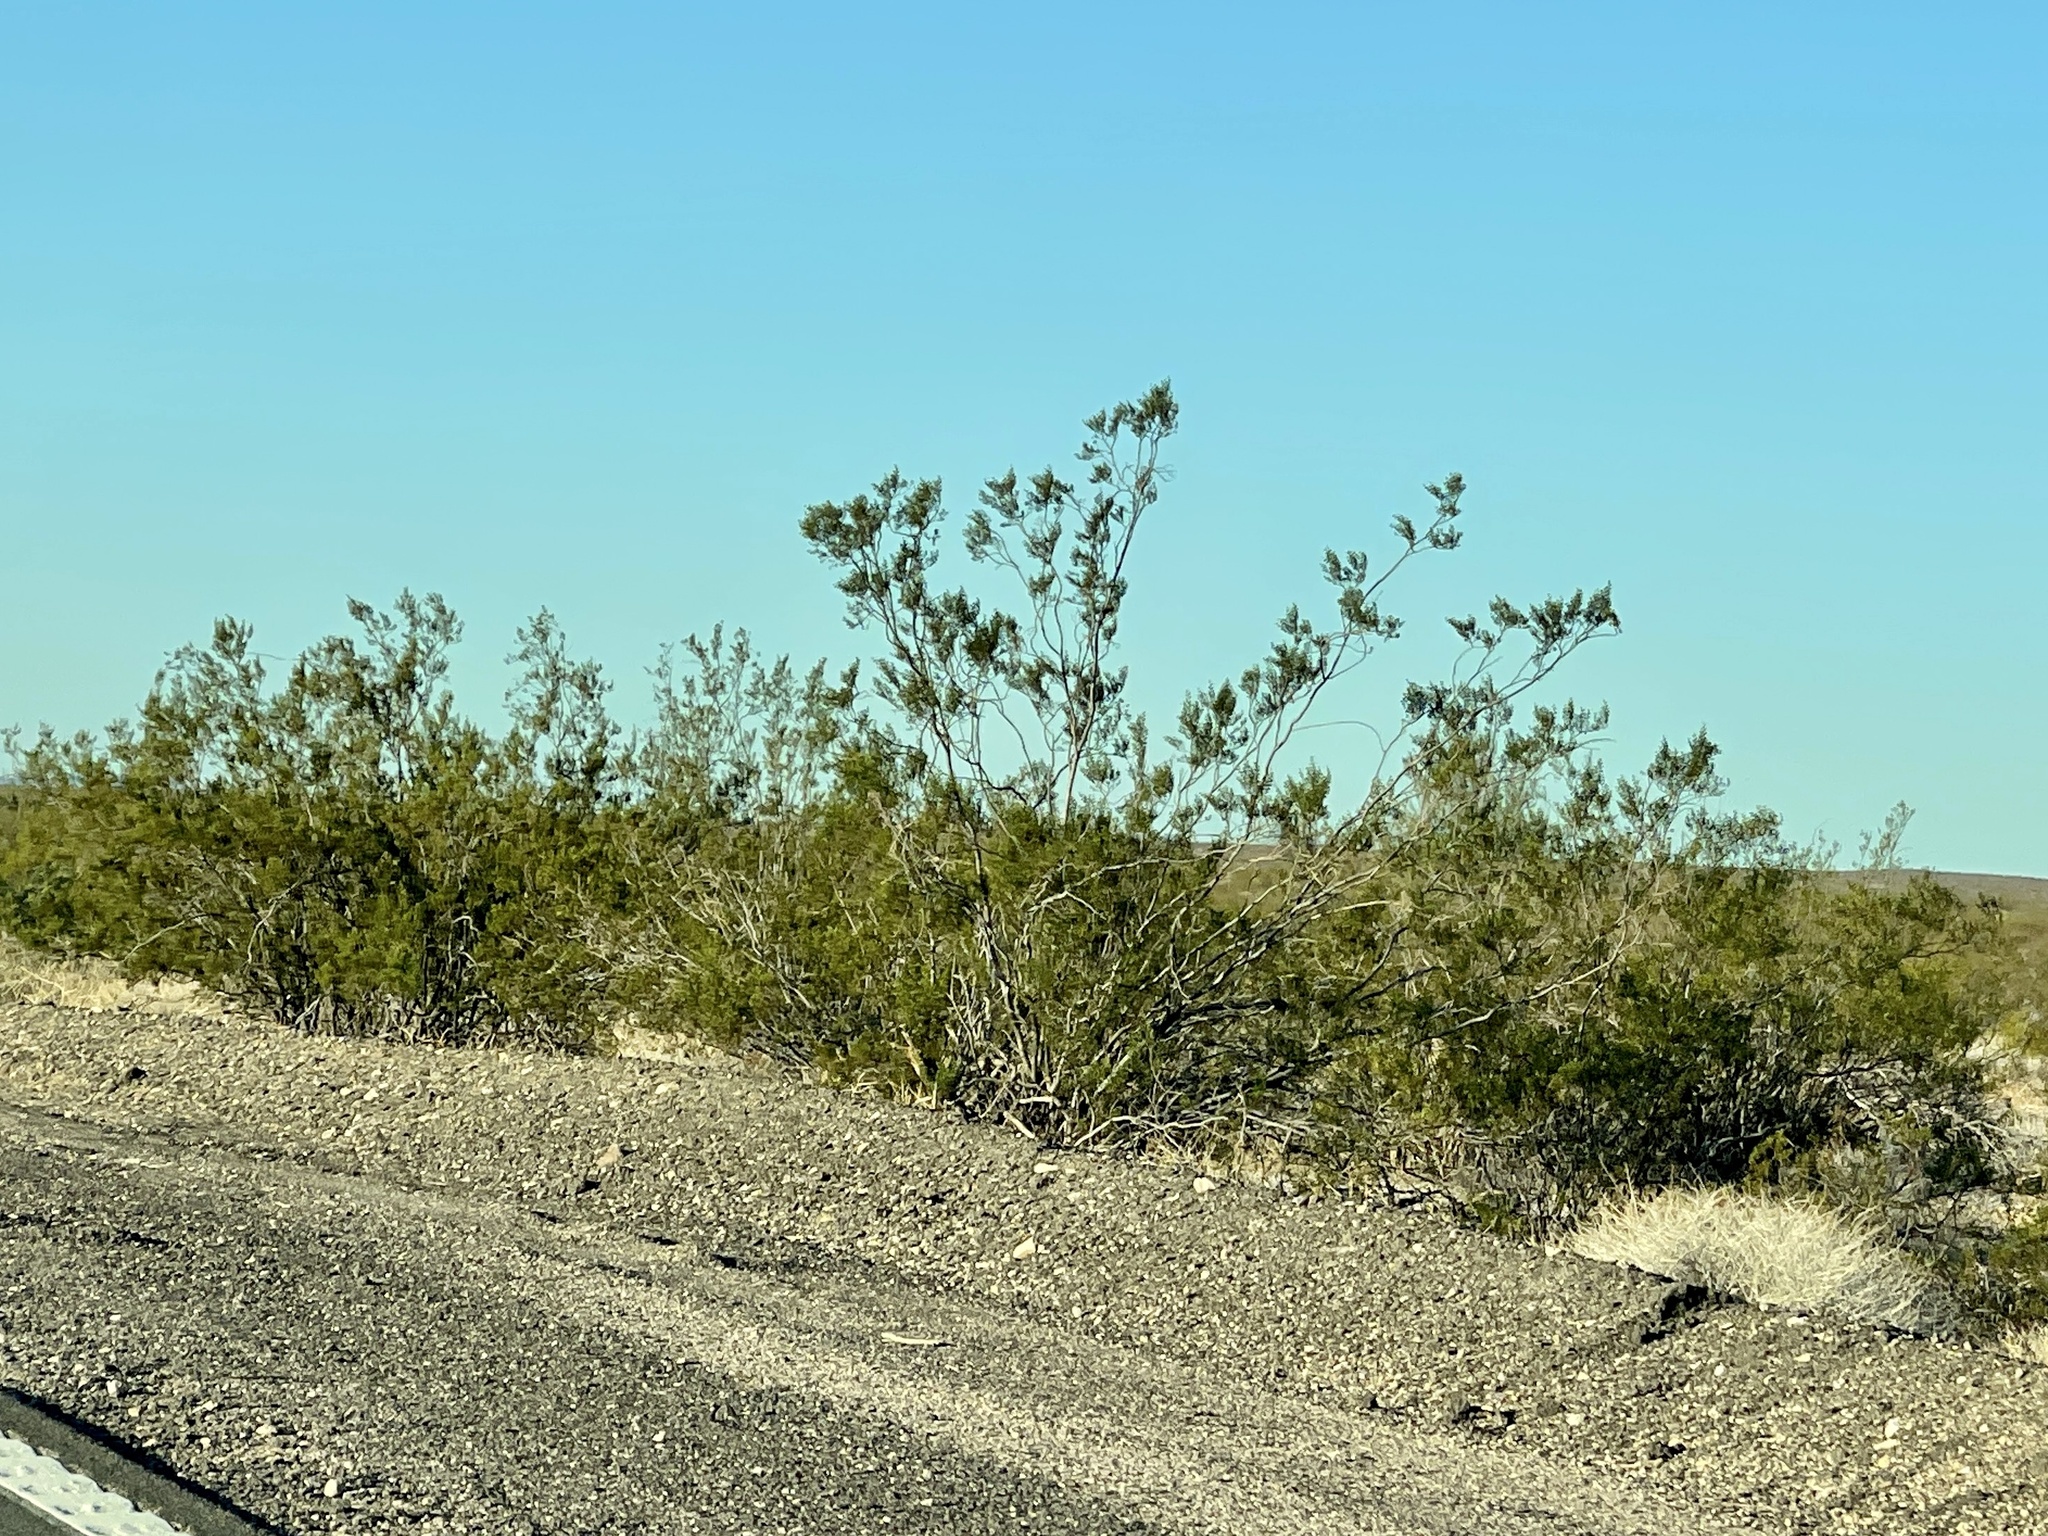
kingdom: Plantae
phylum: Tracheophyta
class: Magnoliopsida
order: Zygophyllales
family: Zygophyllaceae
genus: Larrea
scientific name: Larrea tridentata
